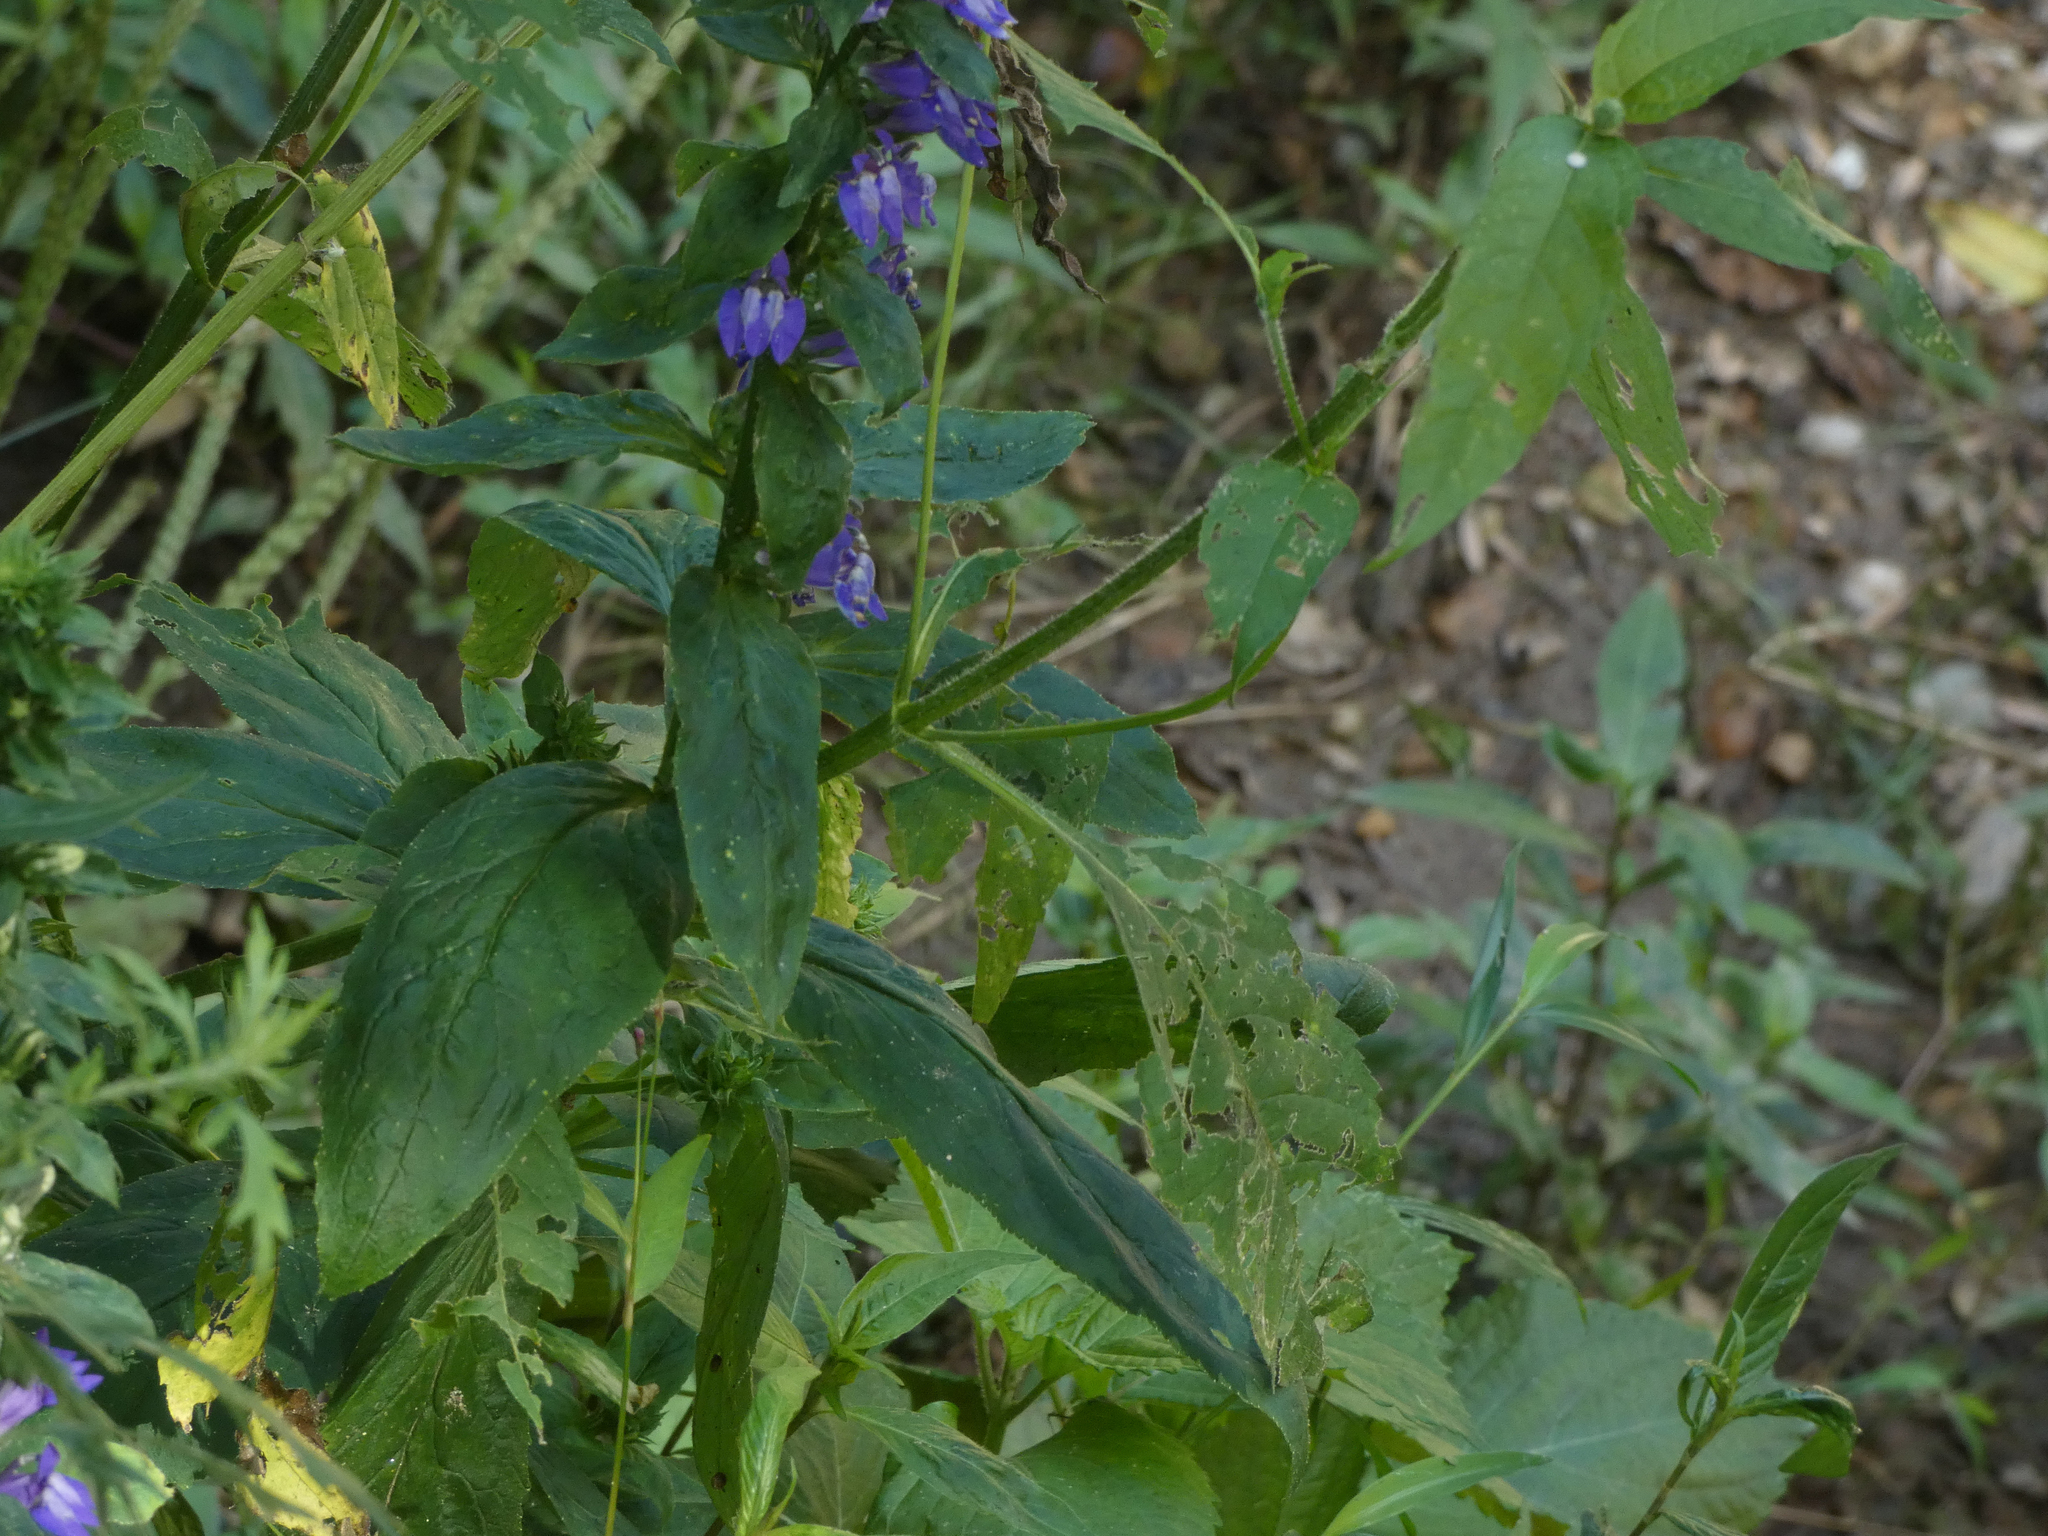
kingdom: Plantae
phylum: Tracheophyta
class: Magnoliopsida
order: Asterales
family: Campanulaceae
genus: Lobelia
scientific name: Lobelia siphilitica
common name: Great lobelia
